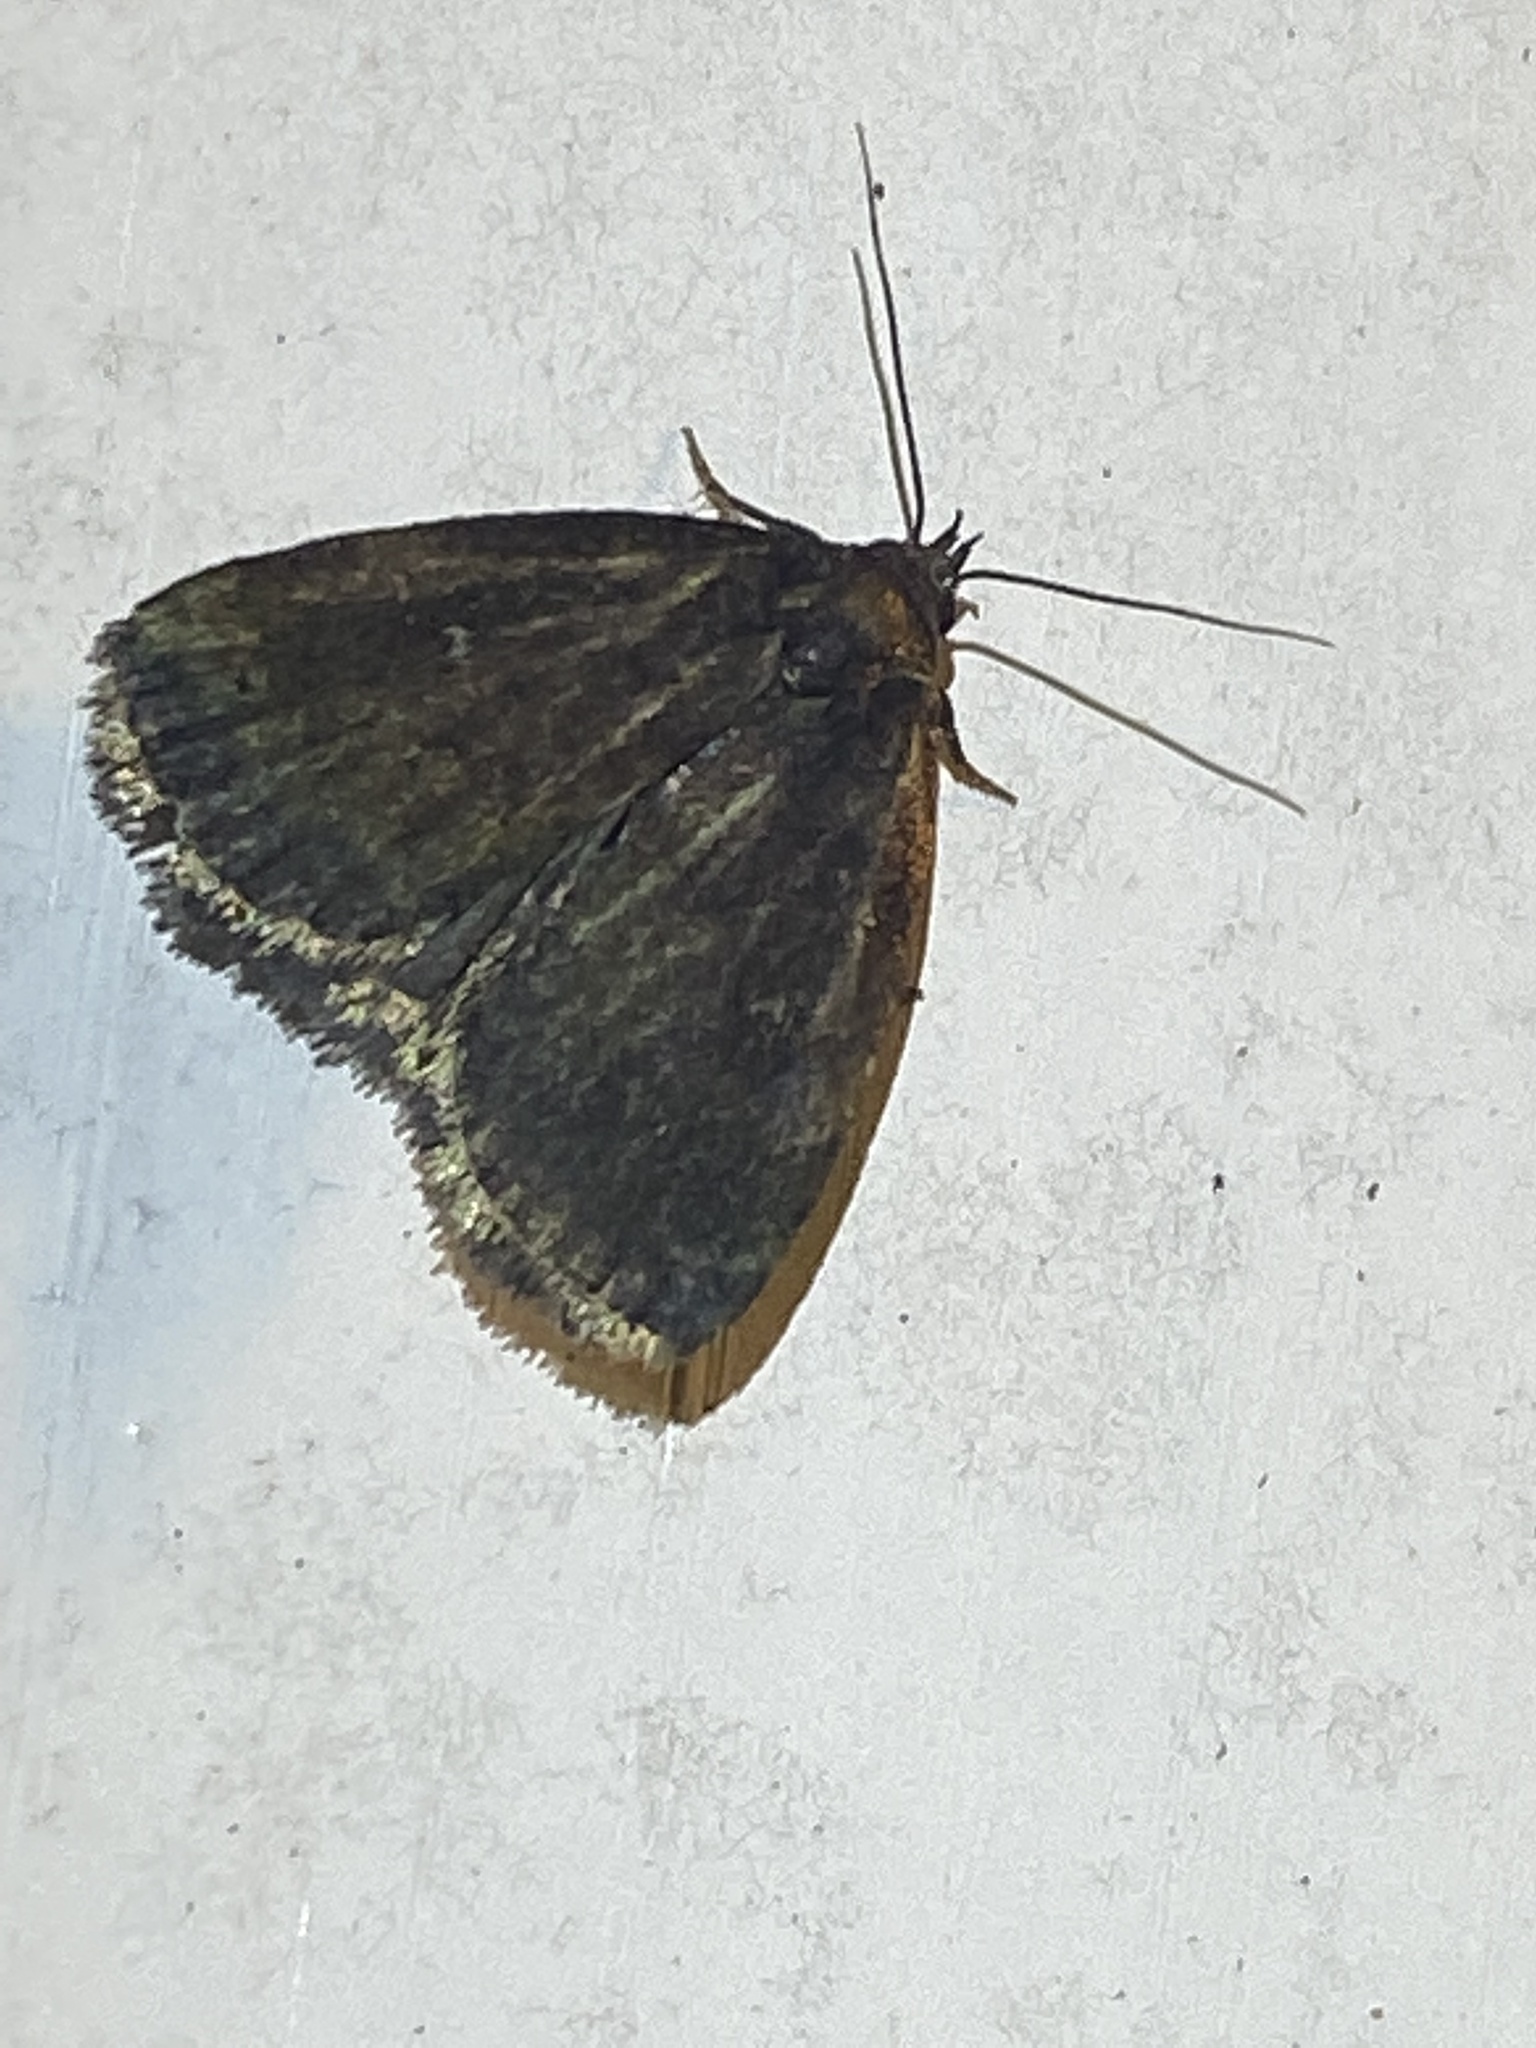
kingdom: Animalia
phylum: Arthropoda
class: Insecta
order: Lepidoptera
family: Erebidae
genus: Idia
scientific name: Idia julia
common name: Julia's idia moth
